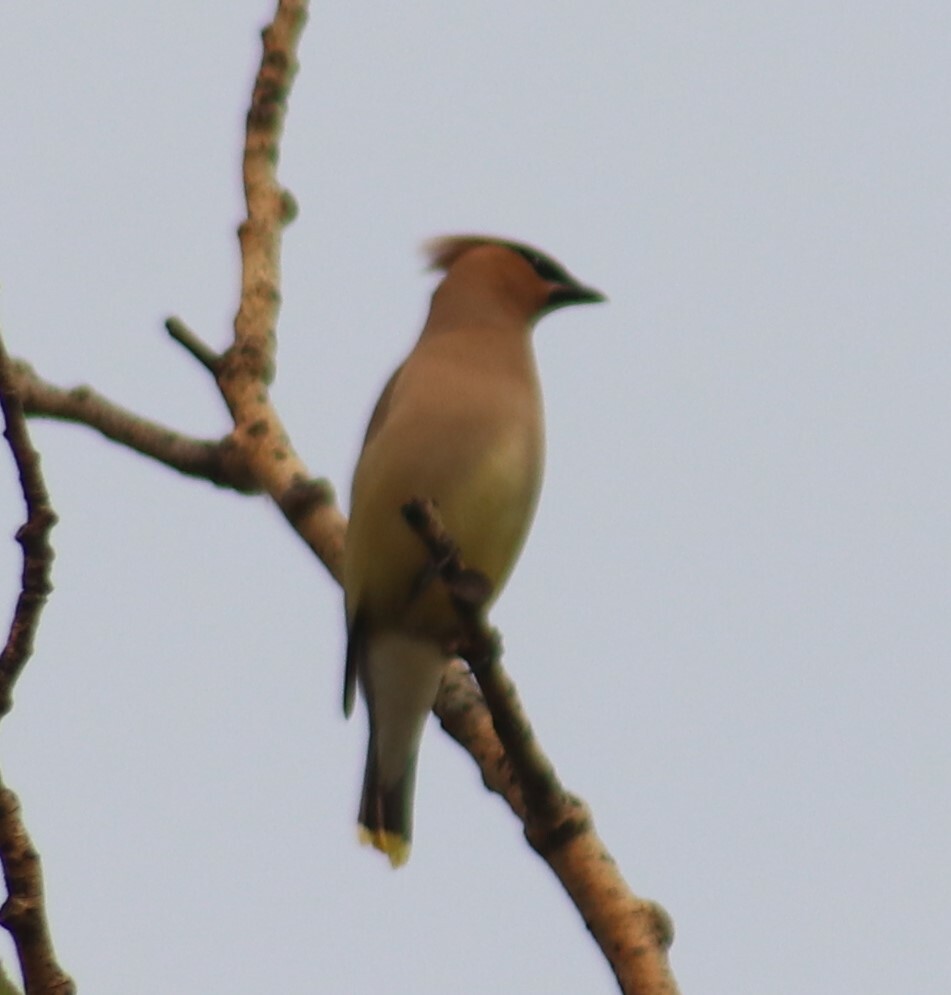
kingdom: Animalia
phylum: Chordata
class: Aves
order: Passeriformes
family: Bombycillidae
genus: Bombycilla
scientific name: Bombycilla cedrorum
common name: Cedar waxwing
